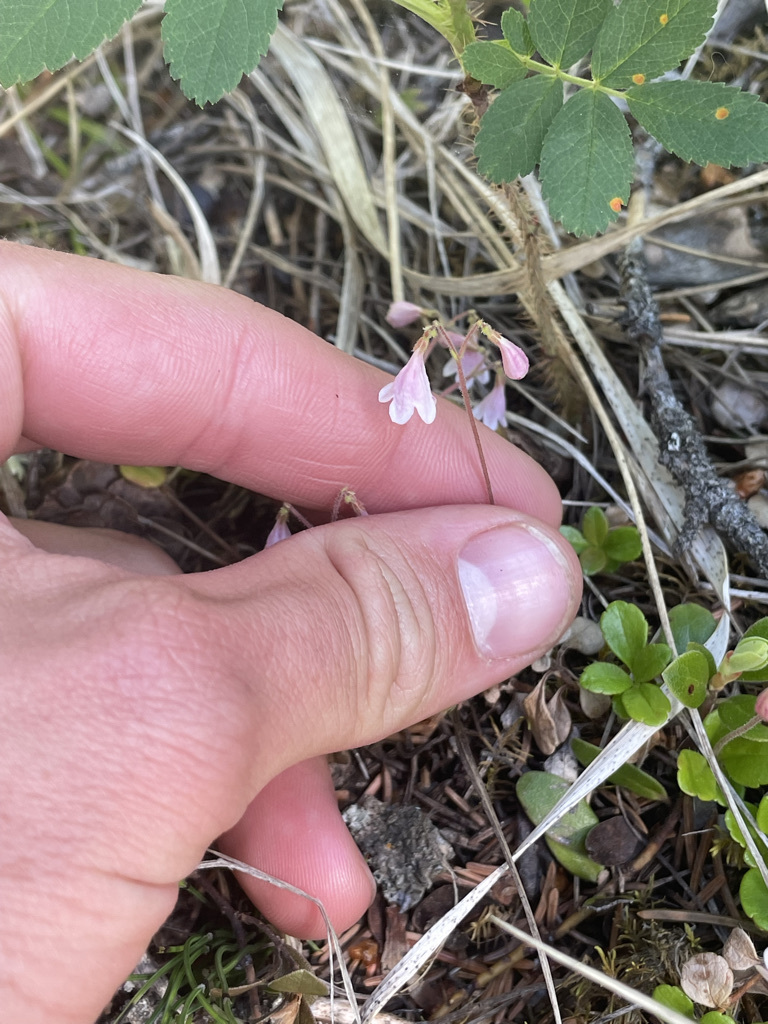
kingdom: Plantae
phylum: Tracheophyta
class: Magnoliopsida
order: Dipsacales
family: Caprifoliaceae
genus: Linnaea
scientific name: Linnaea borealis
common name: Twinflower
